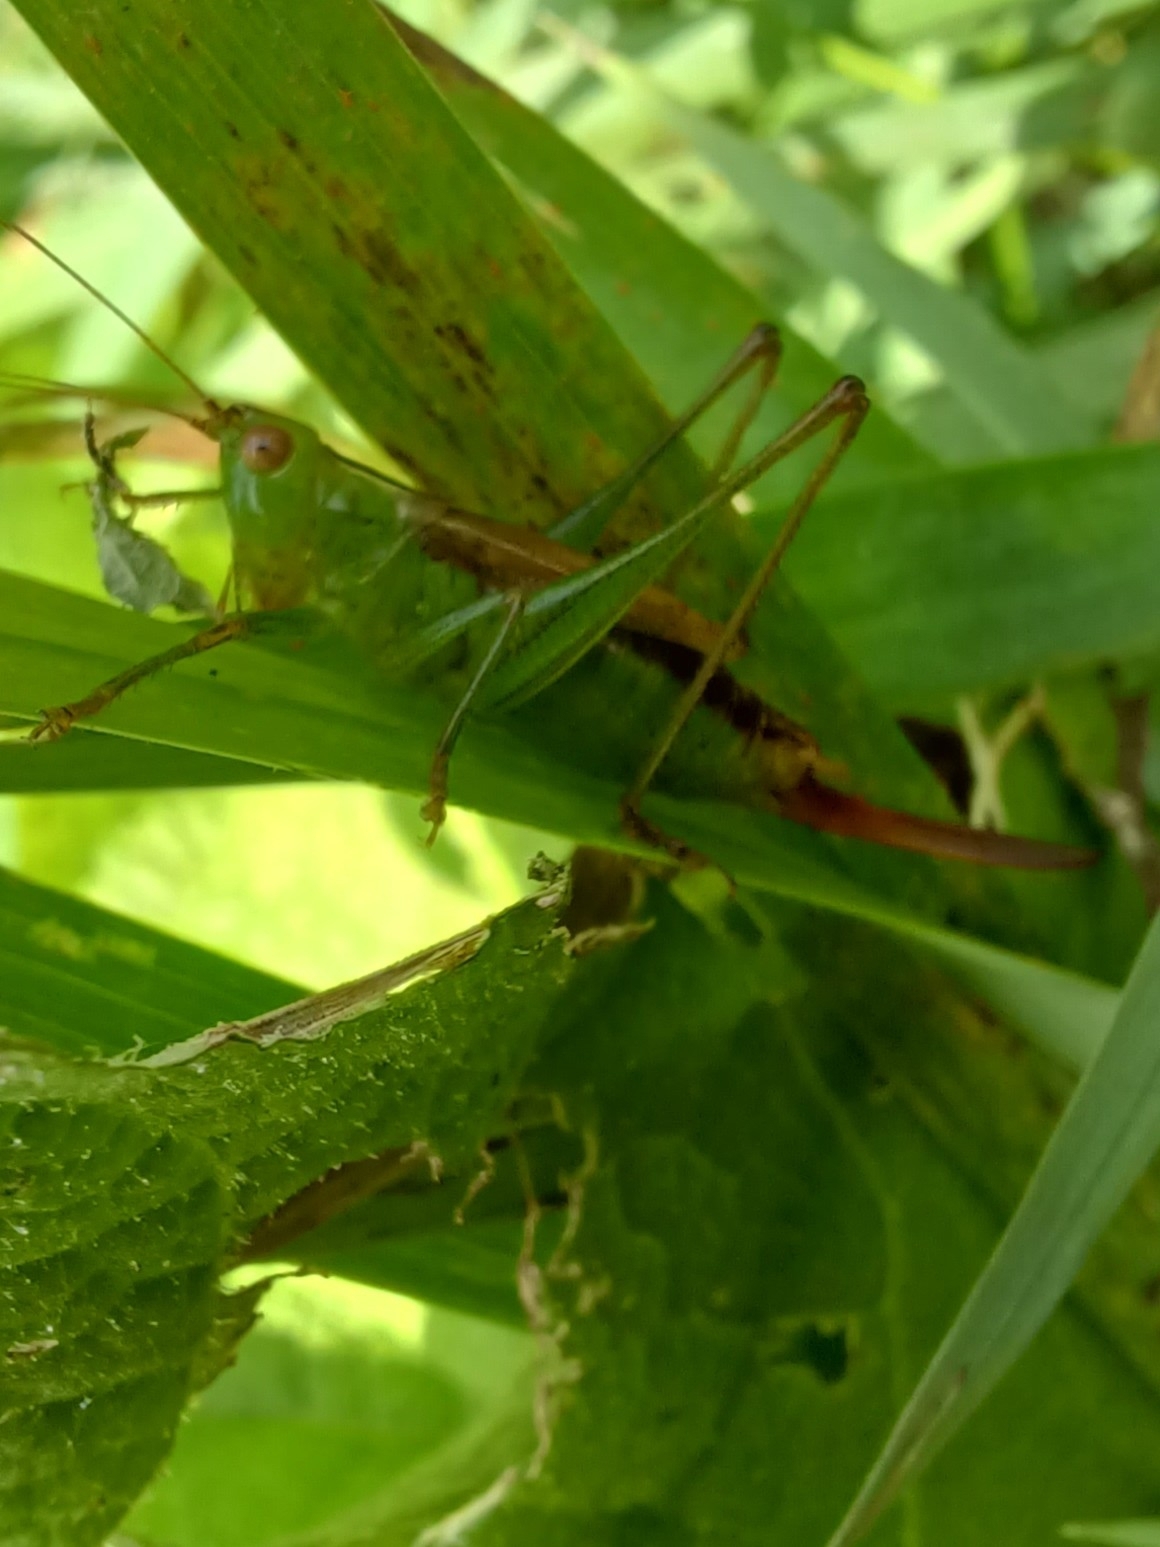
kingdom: Animalia
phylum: Arthropoda
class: Insecta
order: Orthoptera
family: Tettigoniidae
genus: Conocephalus
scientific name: Conocephalus brevipennis
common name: Short-winged meadow katydid
